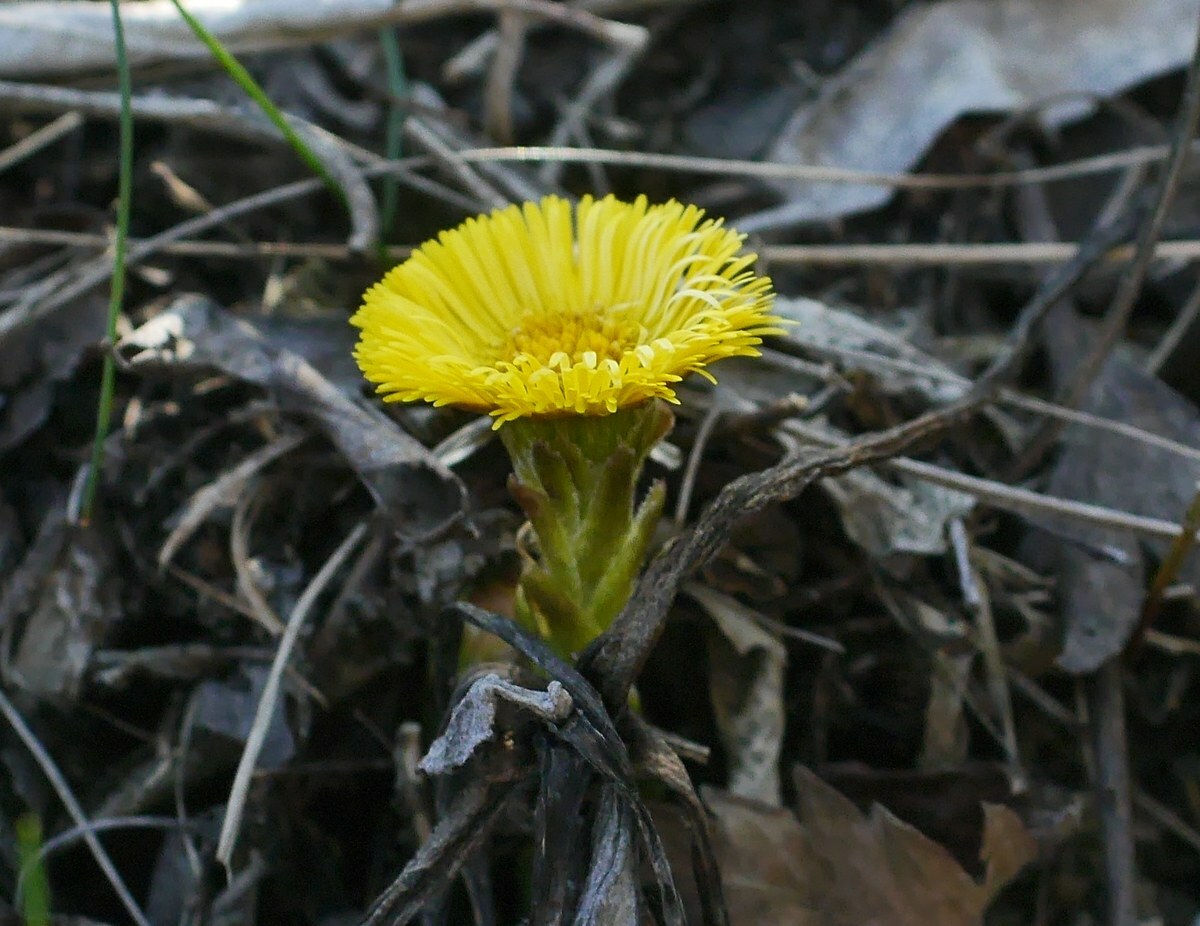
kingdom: Plantae
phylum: Tracheophyta
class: Magnoliopsida
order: Asterales
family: Asteraceae
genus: Tussilago
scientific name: Tussilago farfara
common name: Coltsfoot
